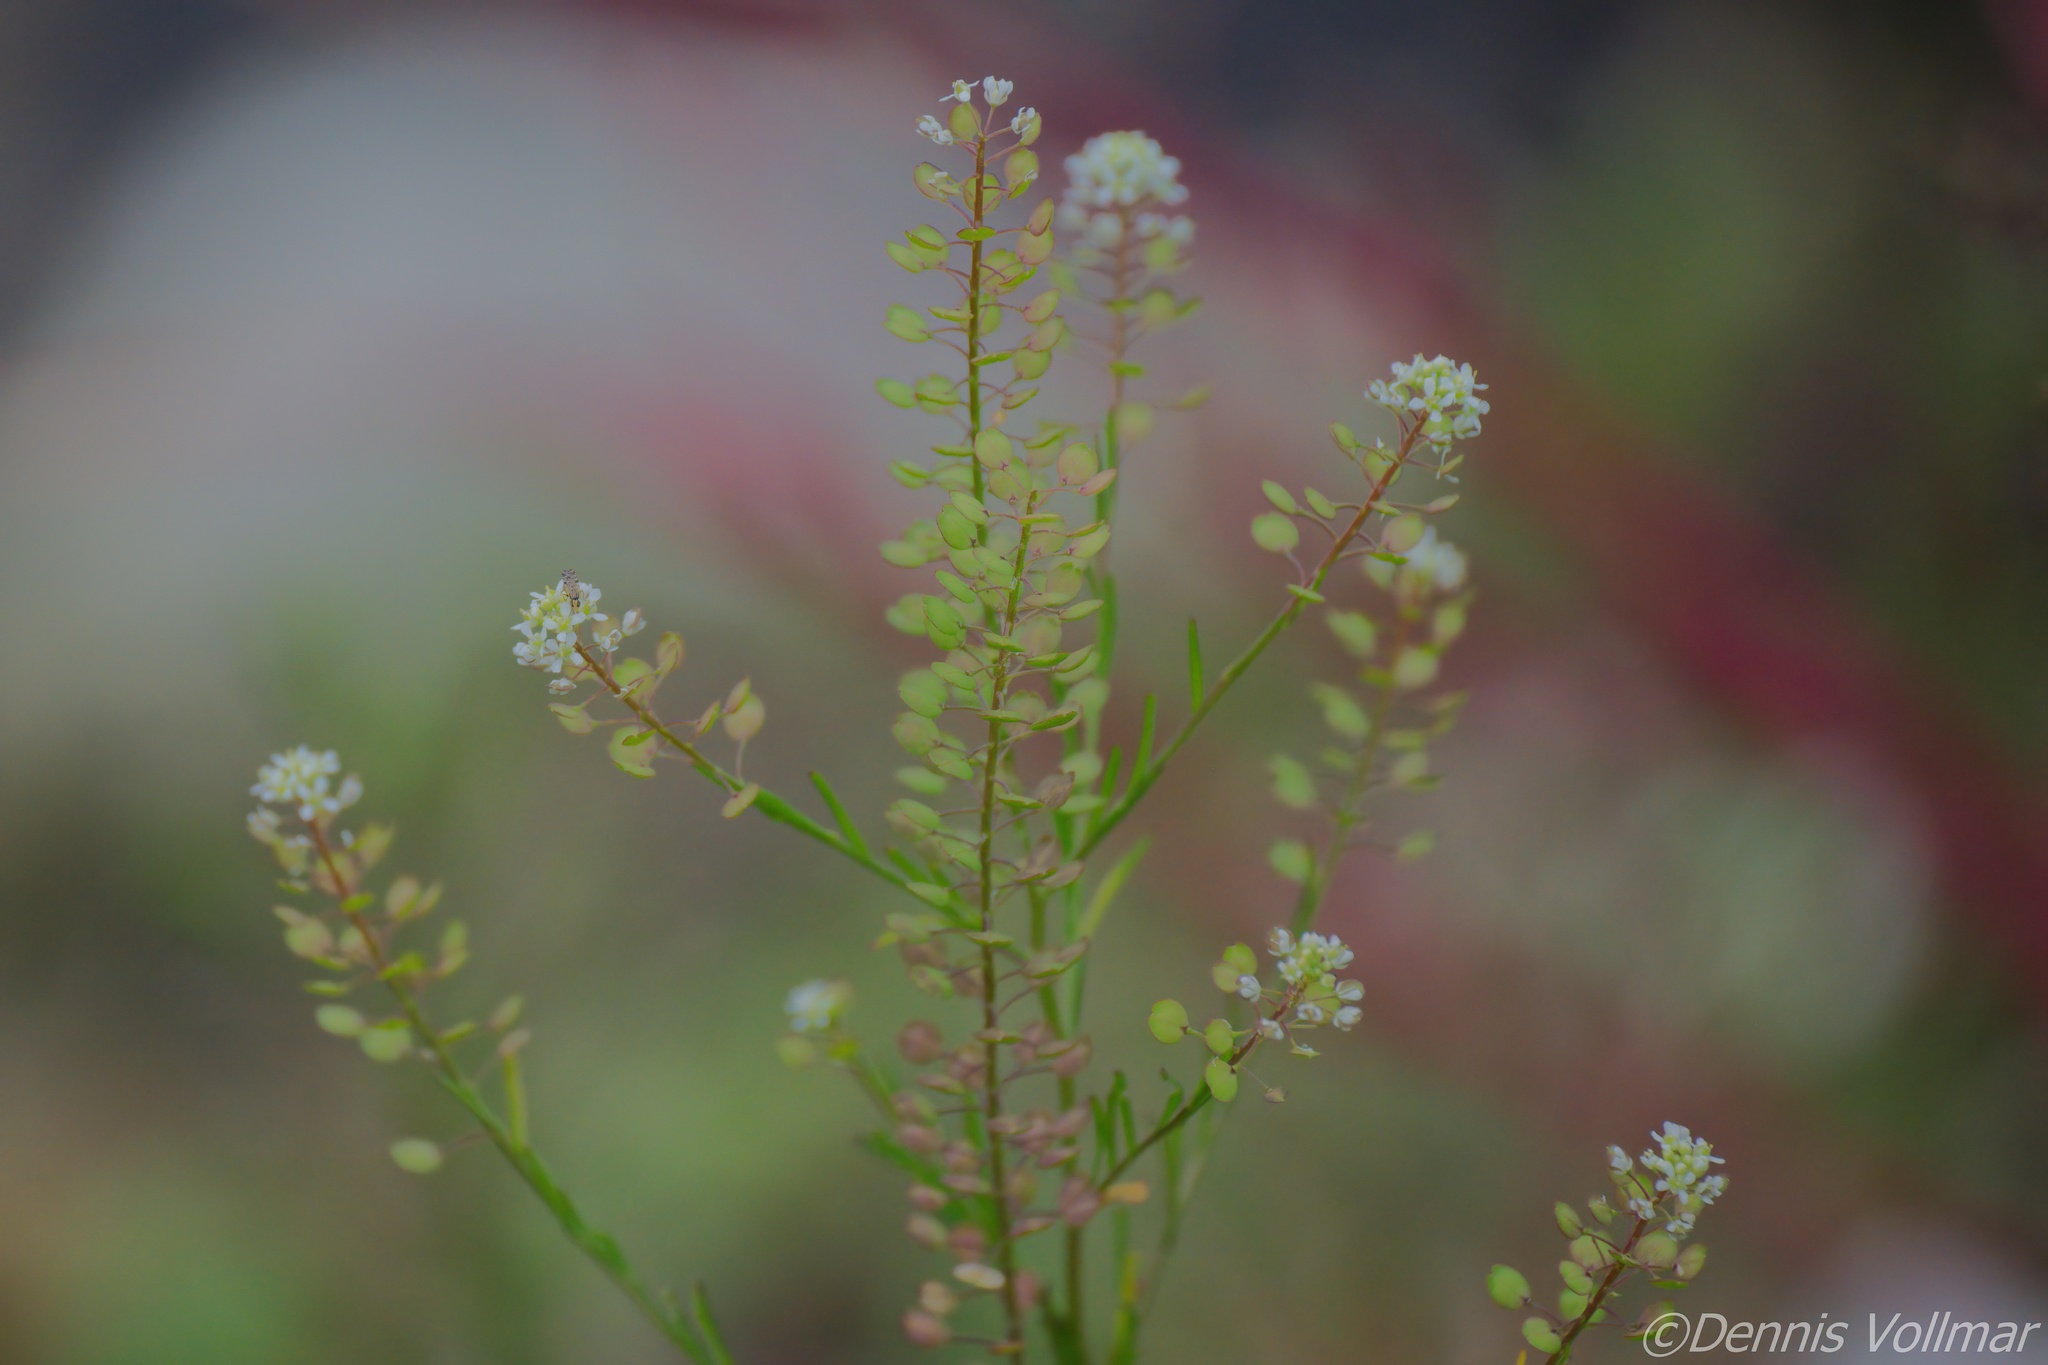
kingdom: Plantae
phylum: Tracheophyta
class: Magnoliopsida
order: Brassicales
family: Brassicaceae
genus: Lepidium
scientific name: Lepidium virginicum
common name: Least pepperwort
